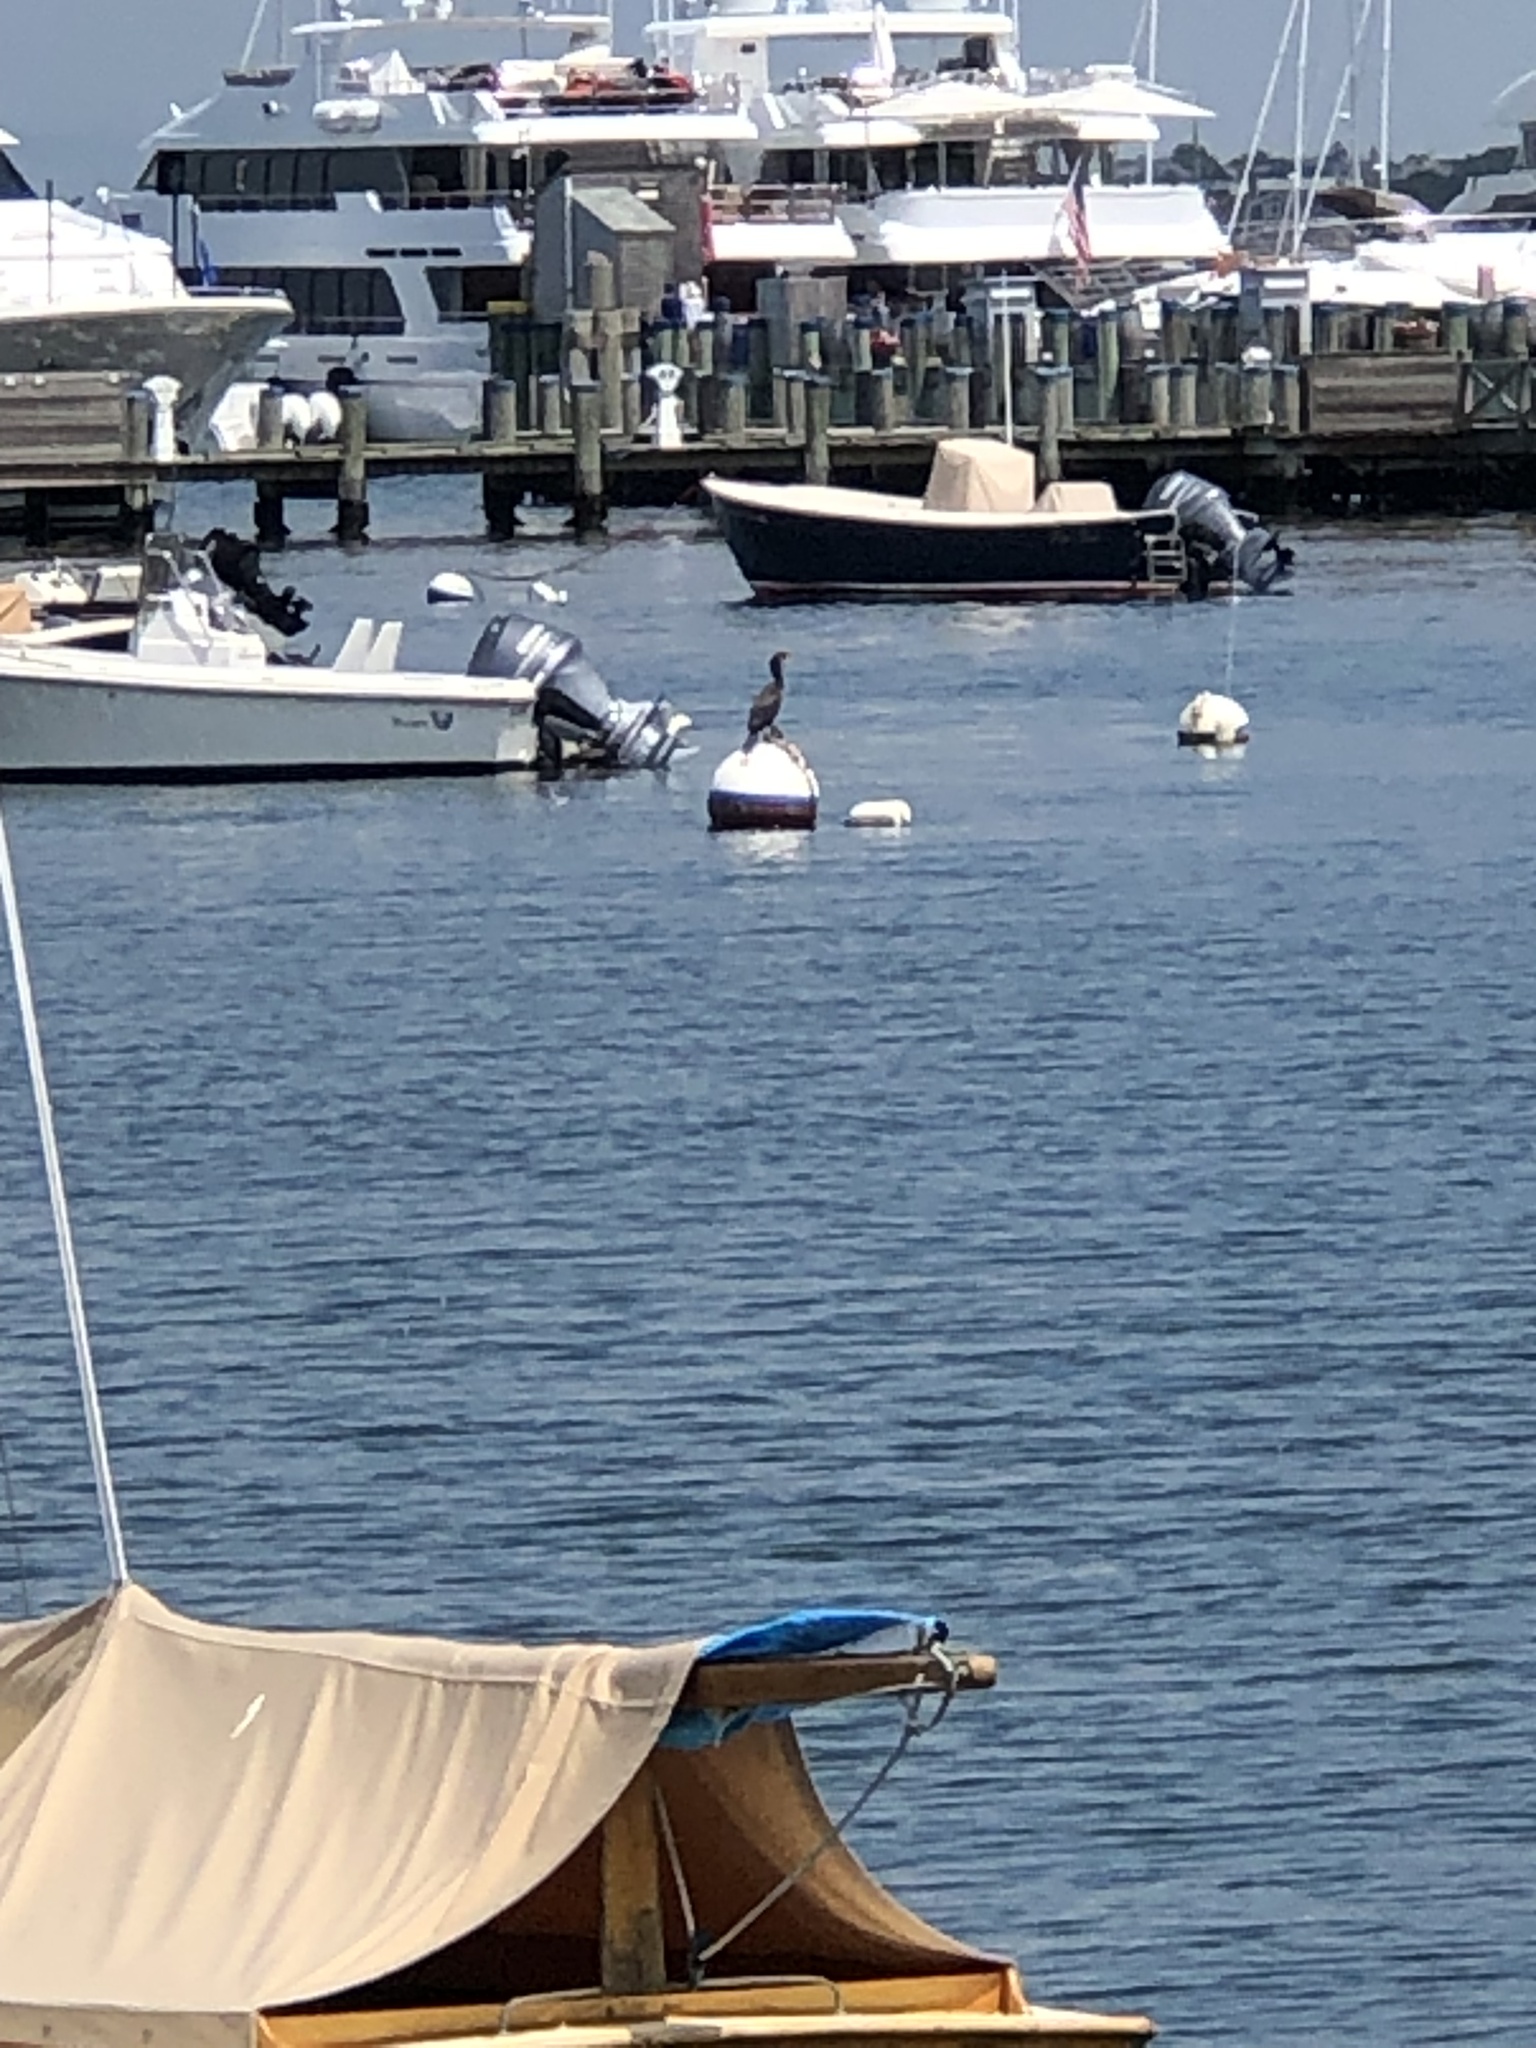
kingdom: Animalia
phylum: Chordata
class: Aves
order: Suliformes
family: Phalacrocoracidae
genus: Phalacrocorax
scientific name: Phalacrocorax auritus
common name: Double-crested cormorant
